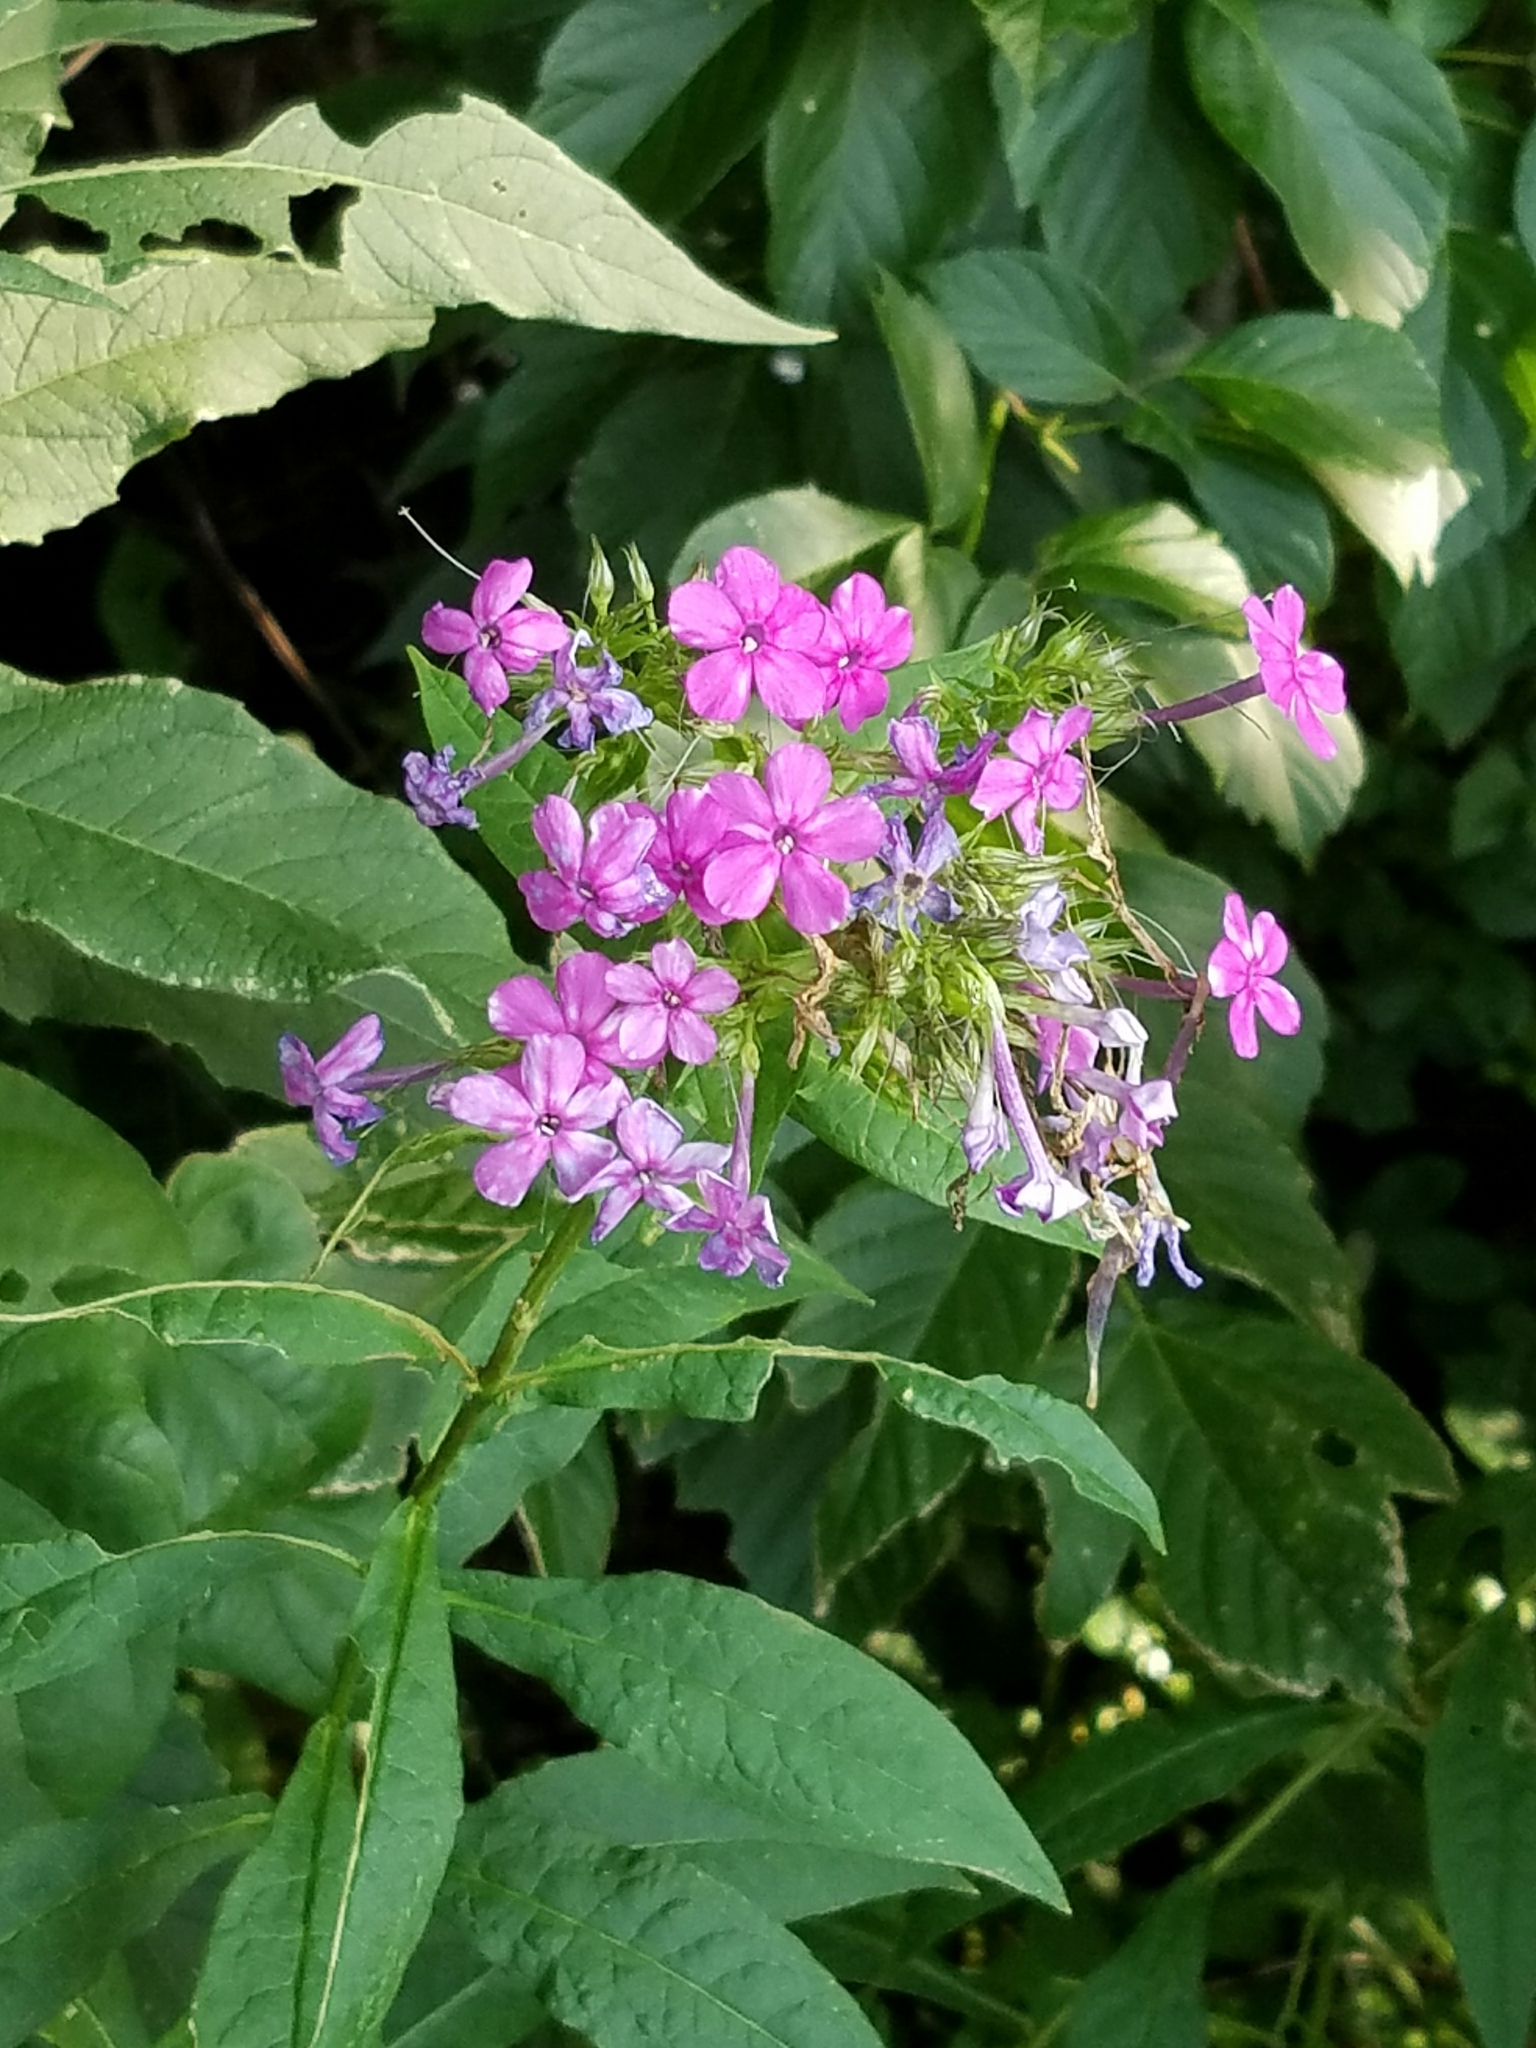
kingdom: Plantae
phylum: Tracheophyta
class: Magnoliopsida
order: Ericales
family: Polemoniaceae
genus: Phlox
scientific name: Phlox paniculata
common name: Fall phlox
